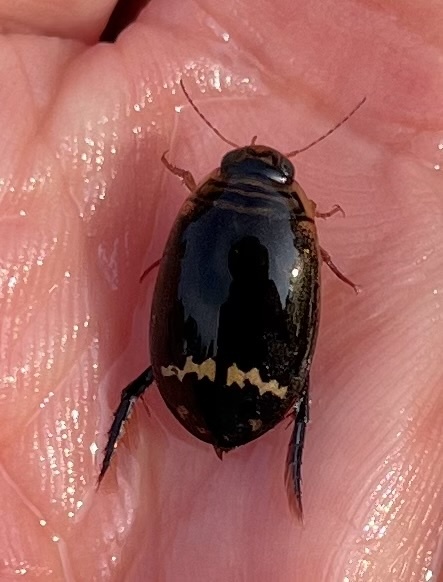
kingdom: Animalia
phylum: Arthropoda
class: Insecta
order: Coleoptera
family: Dytiscidae
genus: Acilius
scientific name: Acilius mediatus
